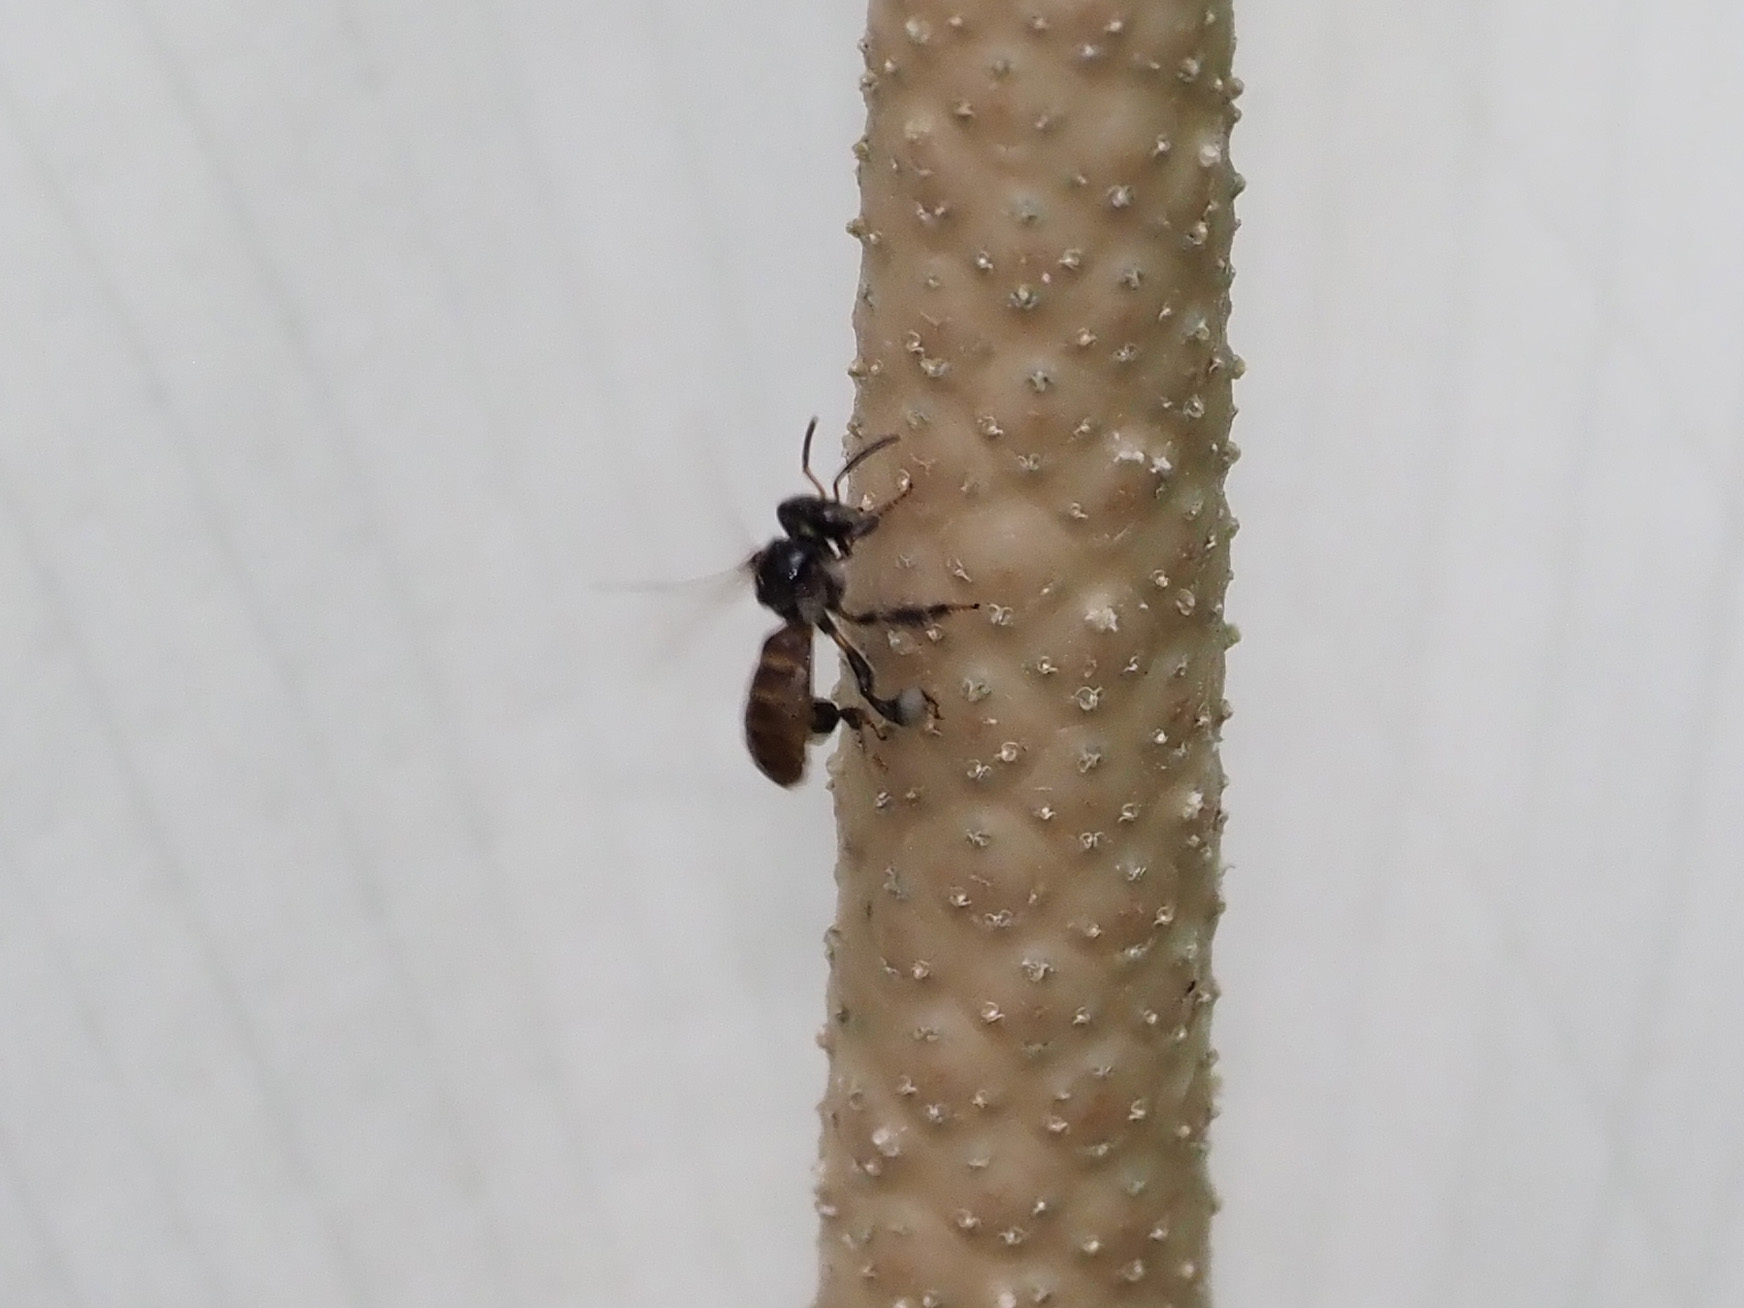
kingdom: Animalia
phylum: Arthropoda
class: Insecta
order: Hymenoptera
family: Apidae
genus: Tetragonula
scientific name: Tetragonula valdezi
